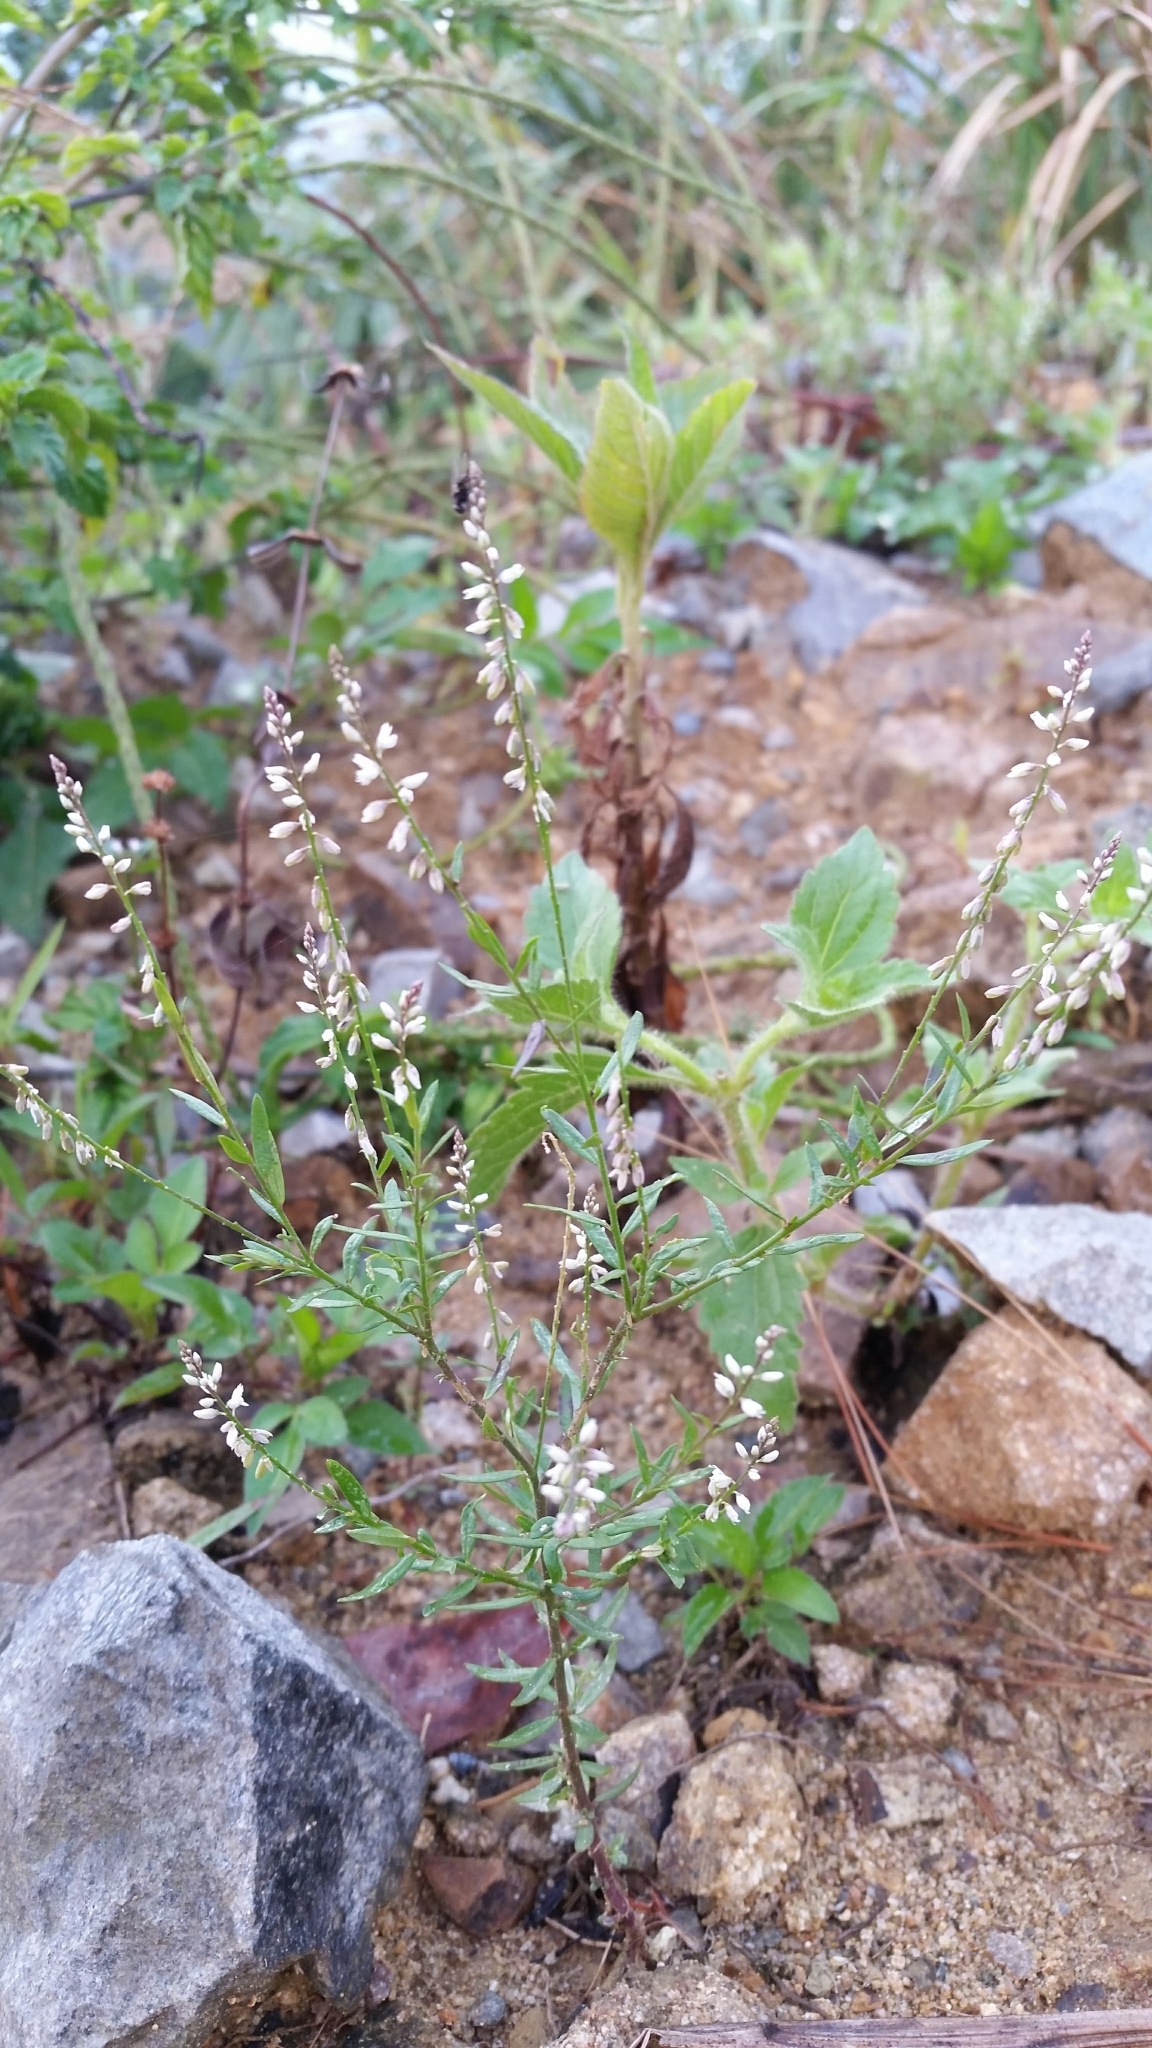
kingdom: Plantae
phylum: Tracheophyta
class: Magnoliopsida
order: Fabales
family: Polygalaceae
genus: Polygala
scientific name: Polygala paniculata
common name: Orosne
